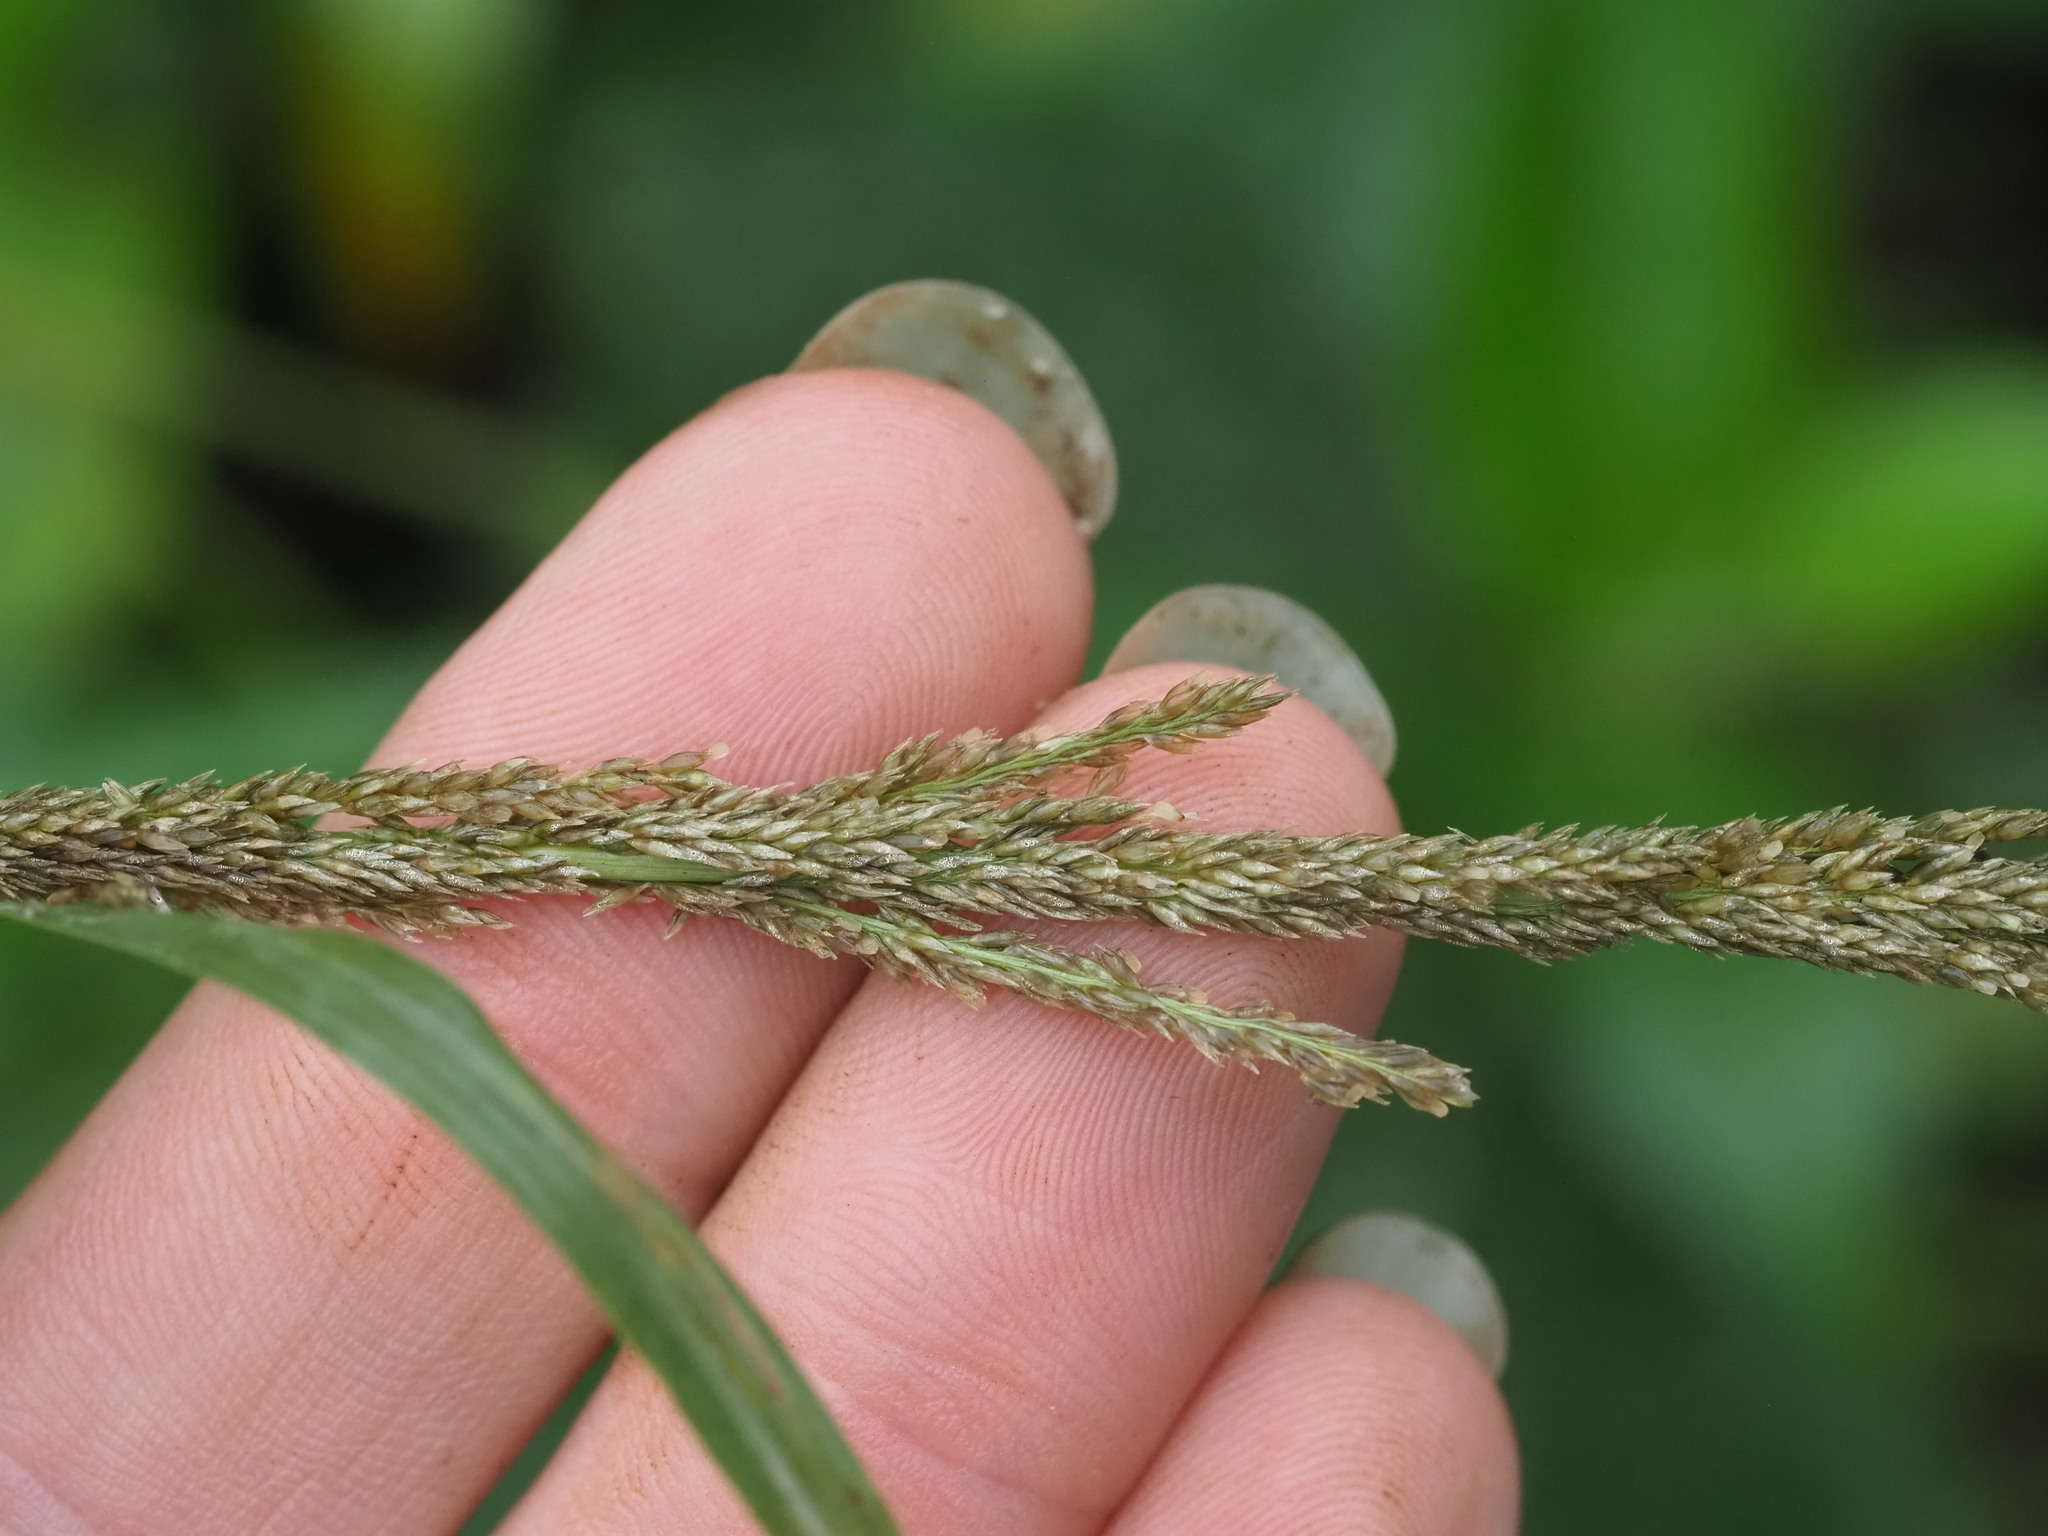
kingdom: Plantae
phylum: Tracheophyta
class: Liliopsida
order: Poales
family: Poaceae
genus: Sporobolus
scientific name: Sporobolus fertilis
